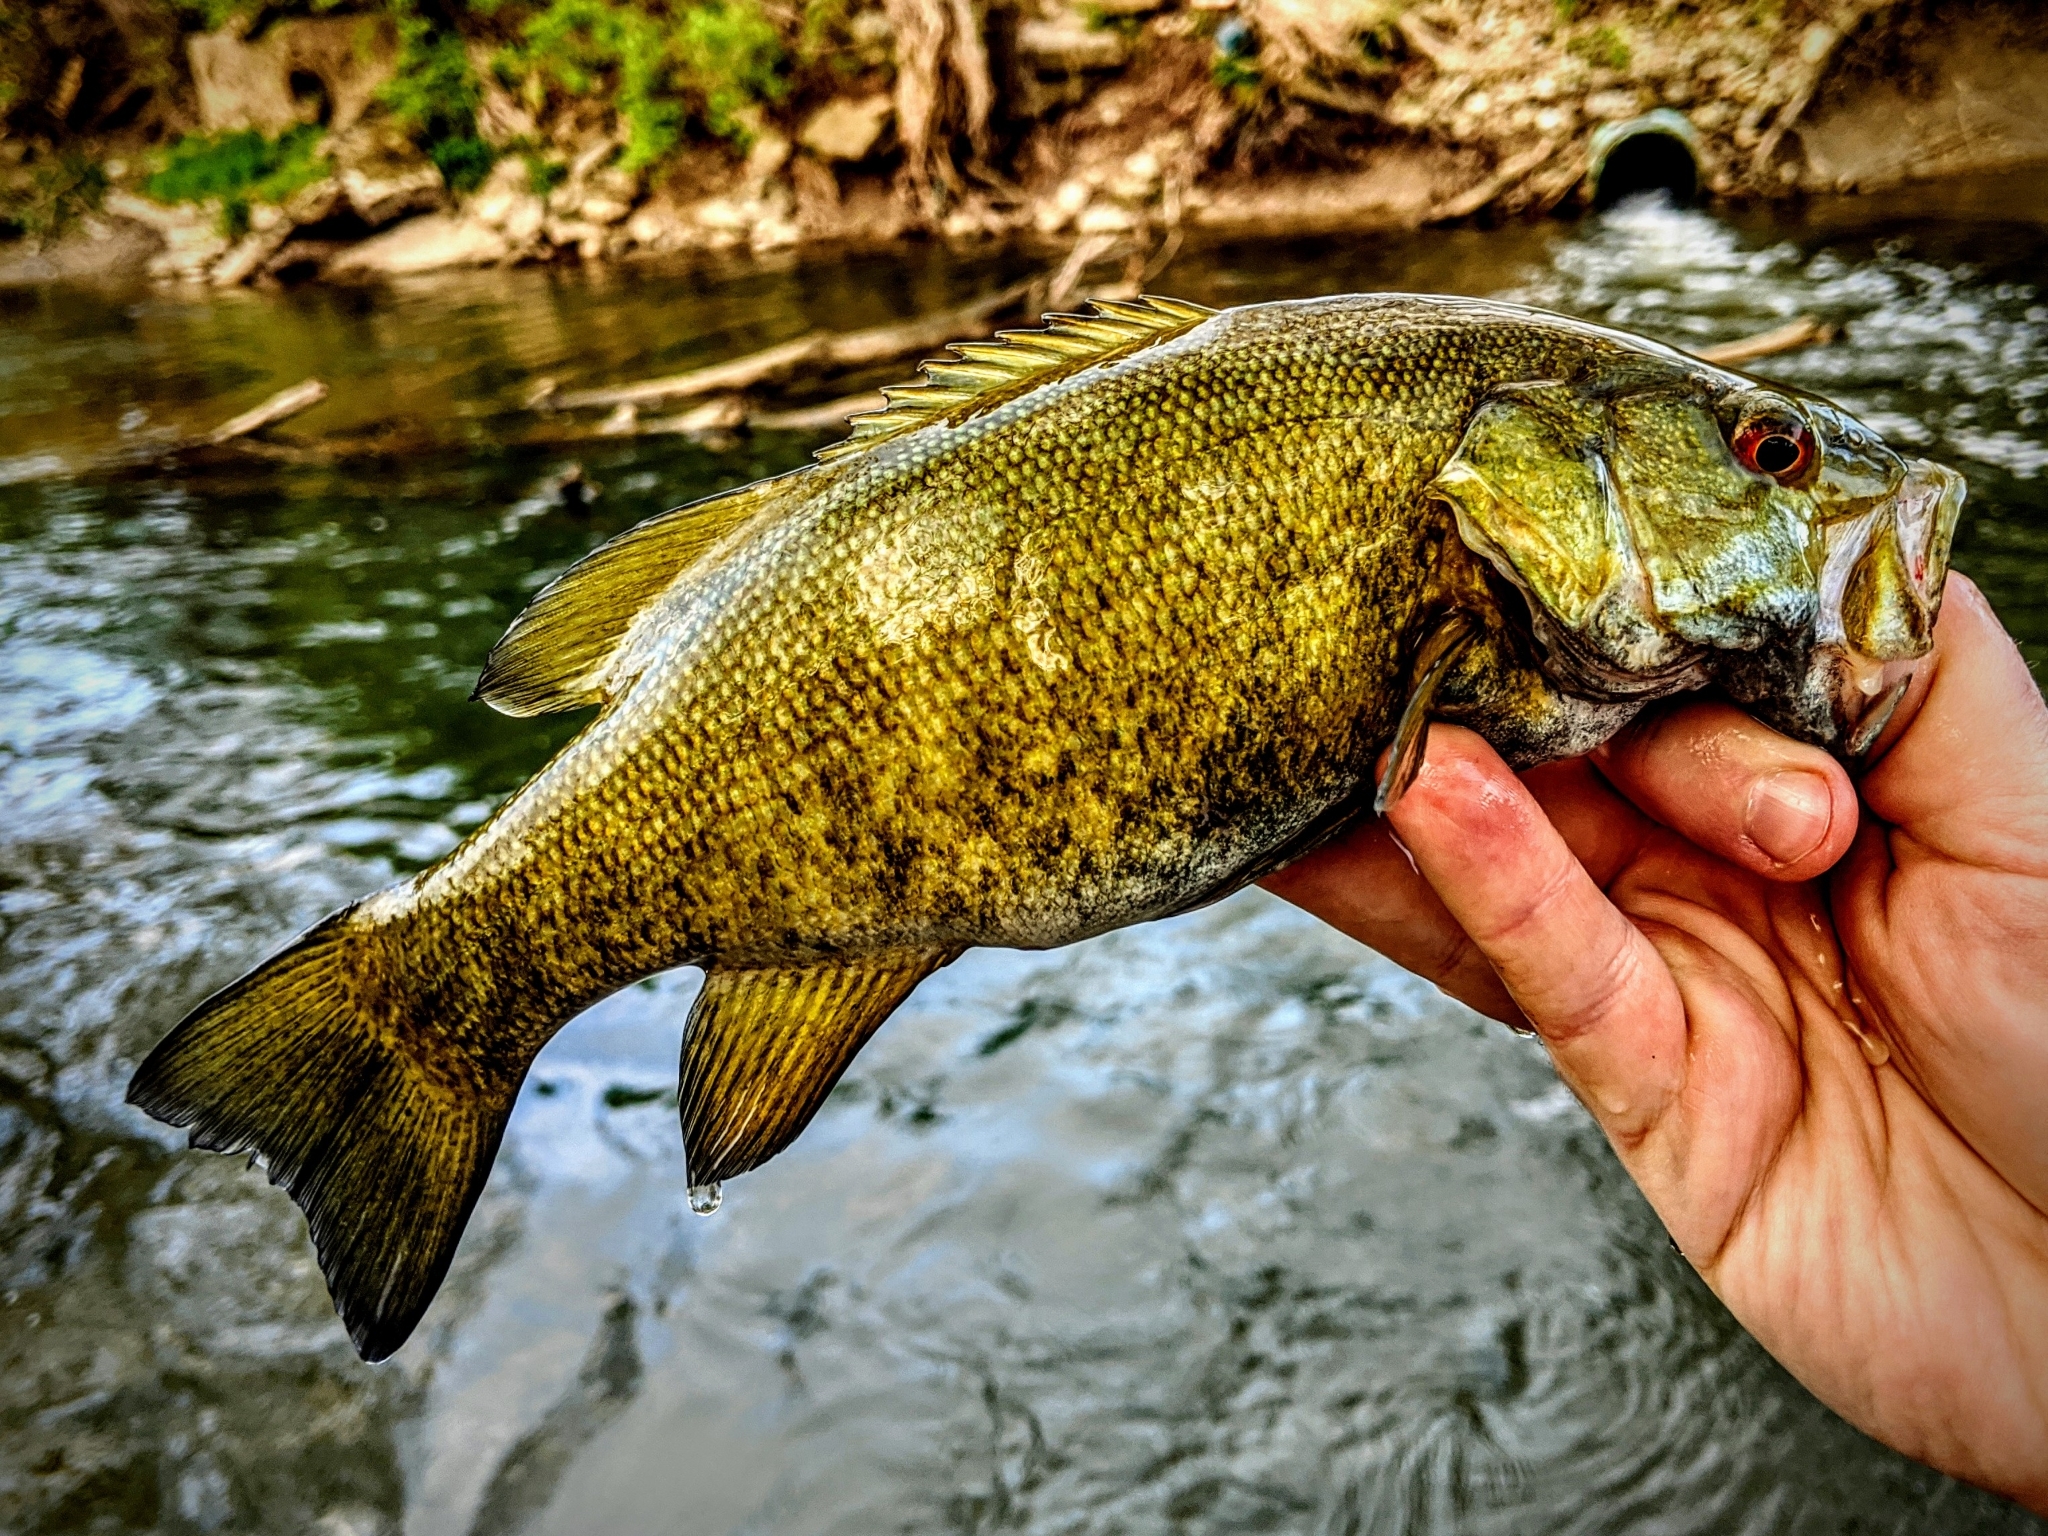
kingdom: Animalia
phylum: Chordata
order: Perciformes
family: Centrarchidae
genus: Micropterus
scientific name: Micropterus dolomieu
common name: Smallmouth bass
